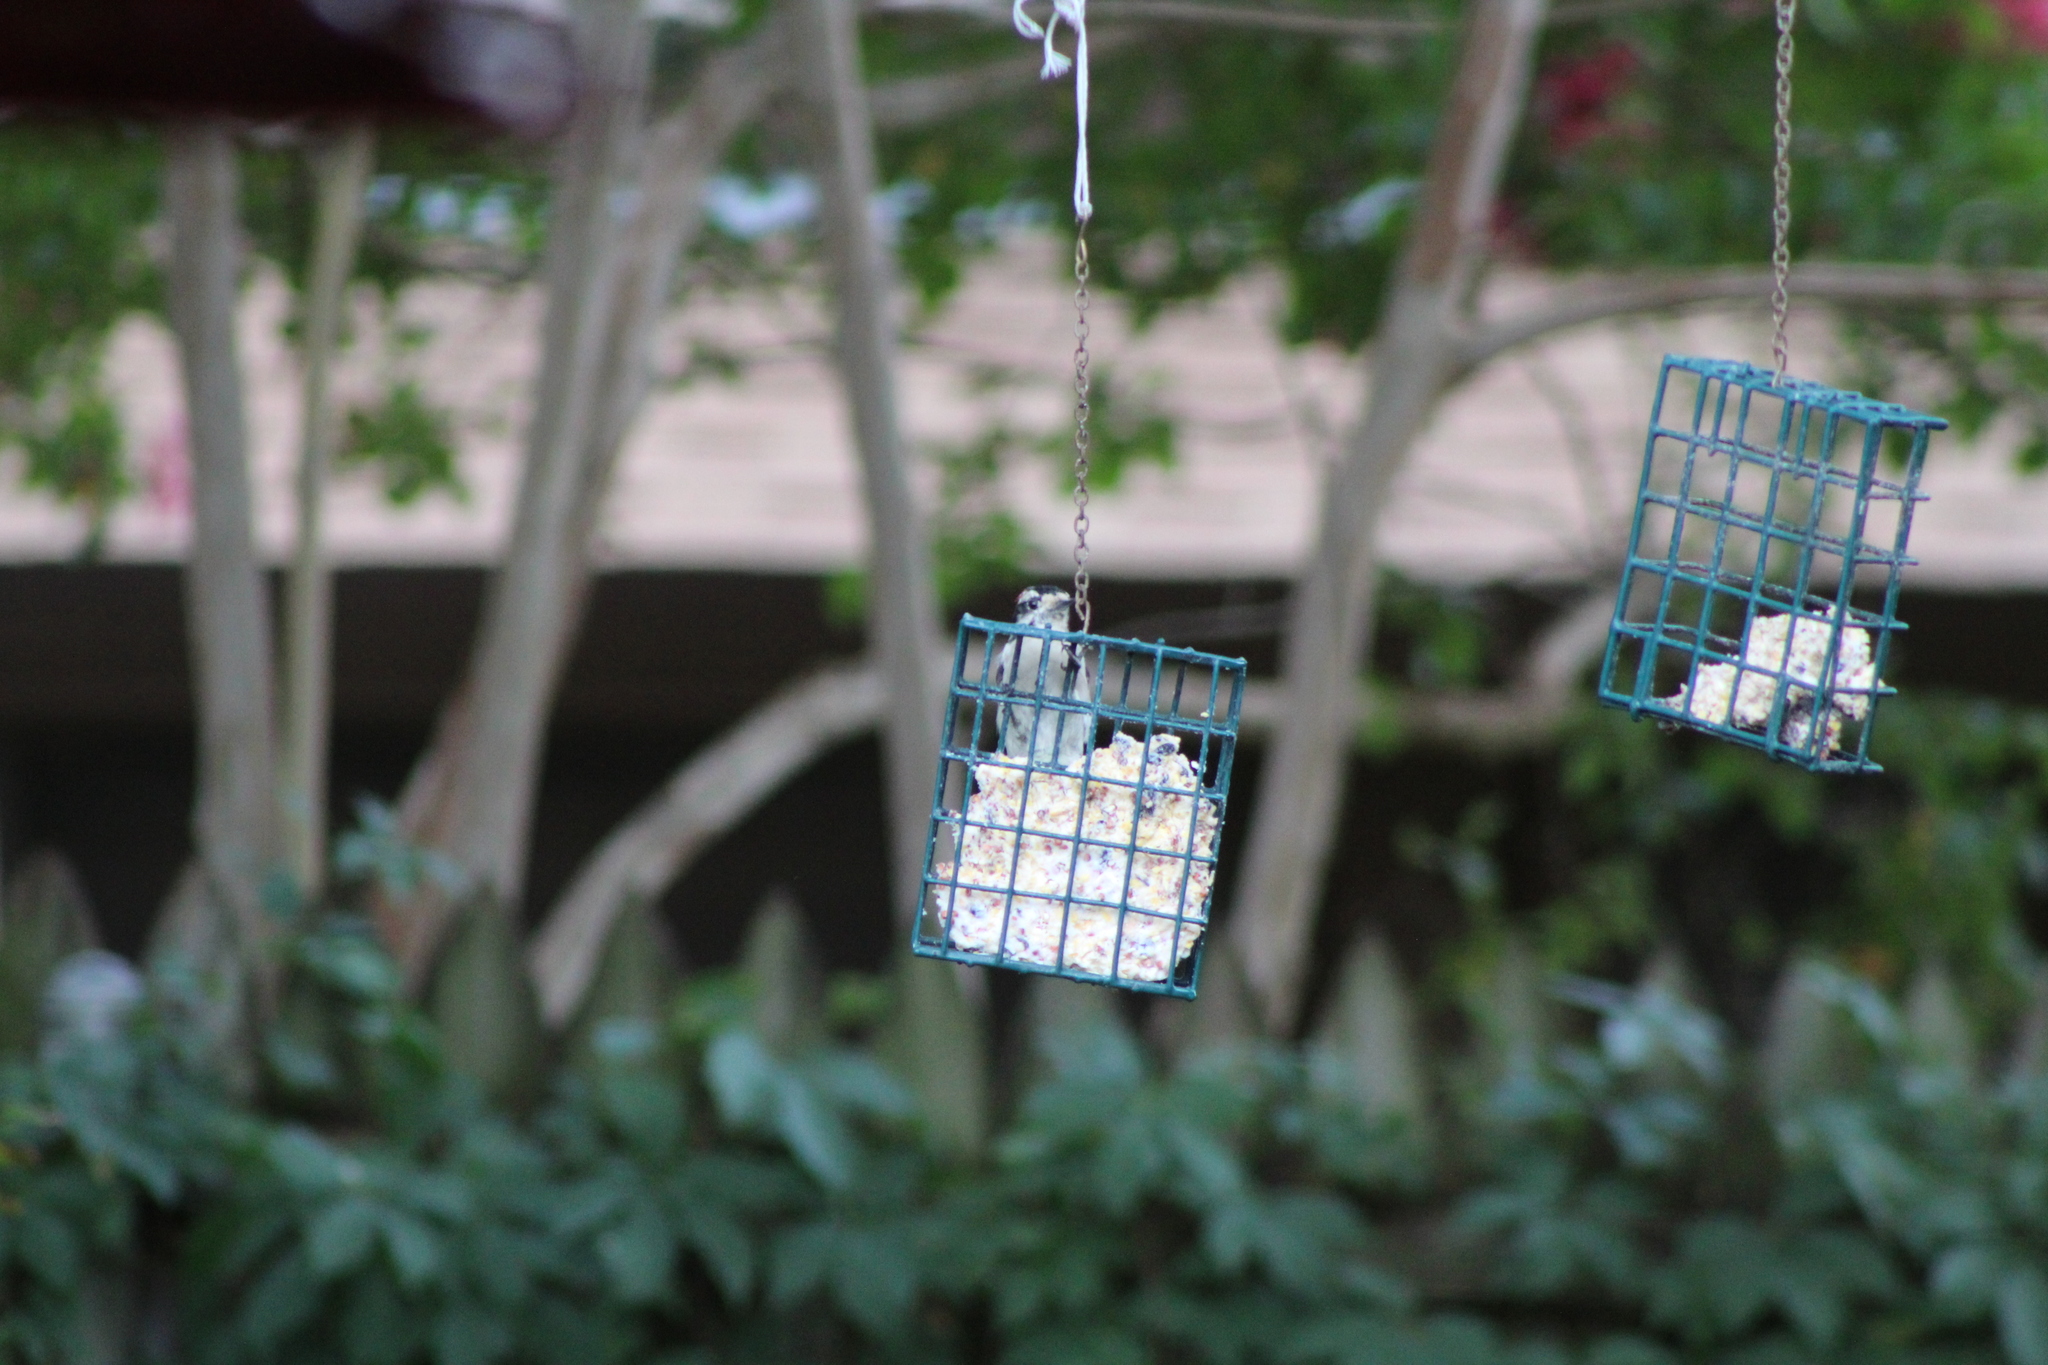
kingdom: Animalia
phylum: Chordata
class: Aves
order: Piciformes
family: Picidae
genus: Dryobates
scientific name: Dryobates pubescens
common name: Downy woodpecker
